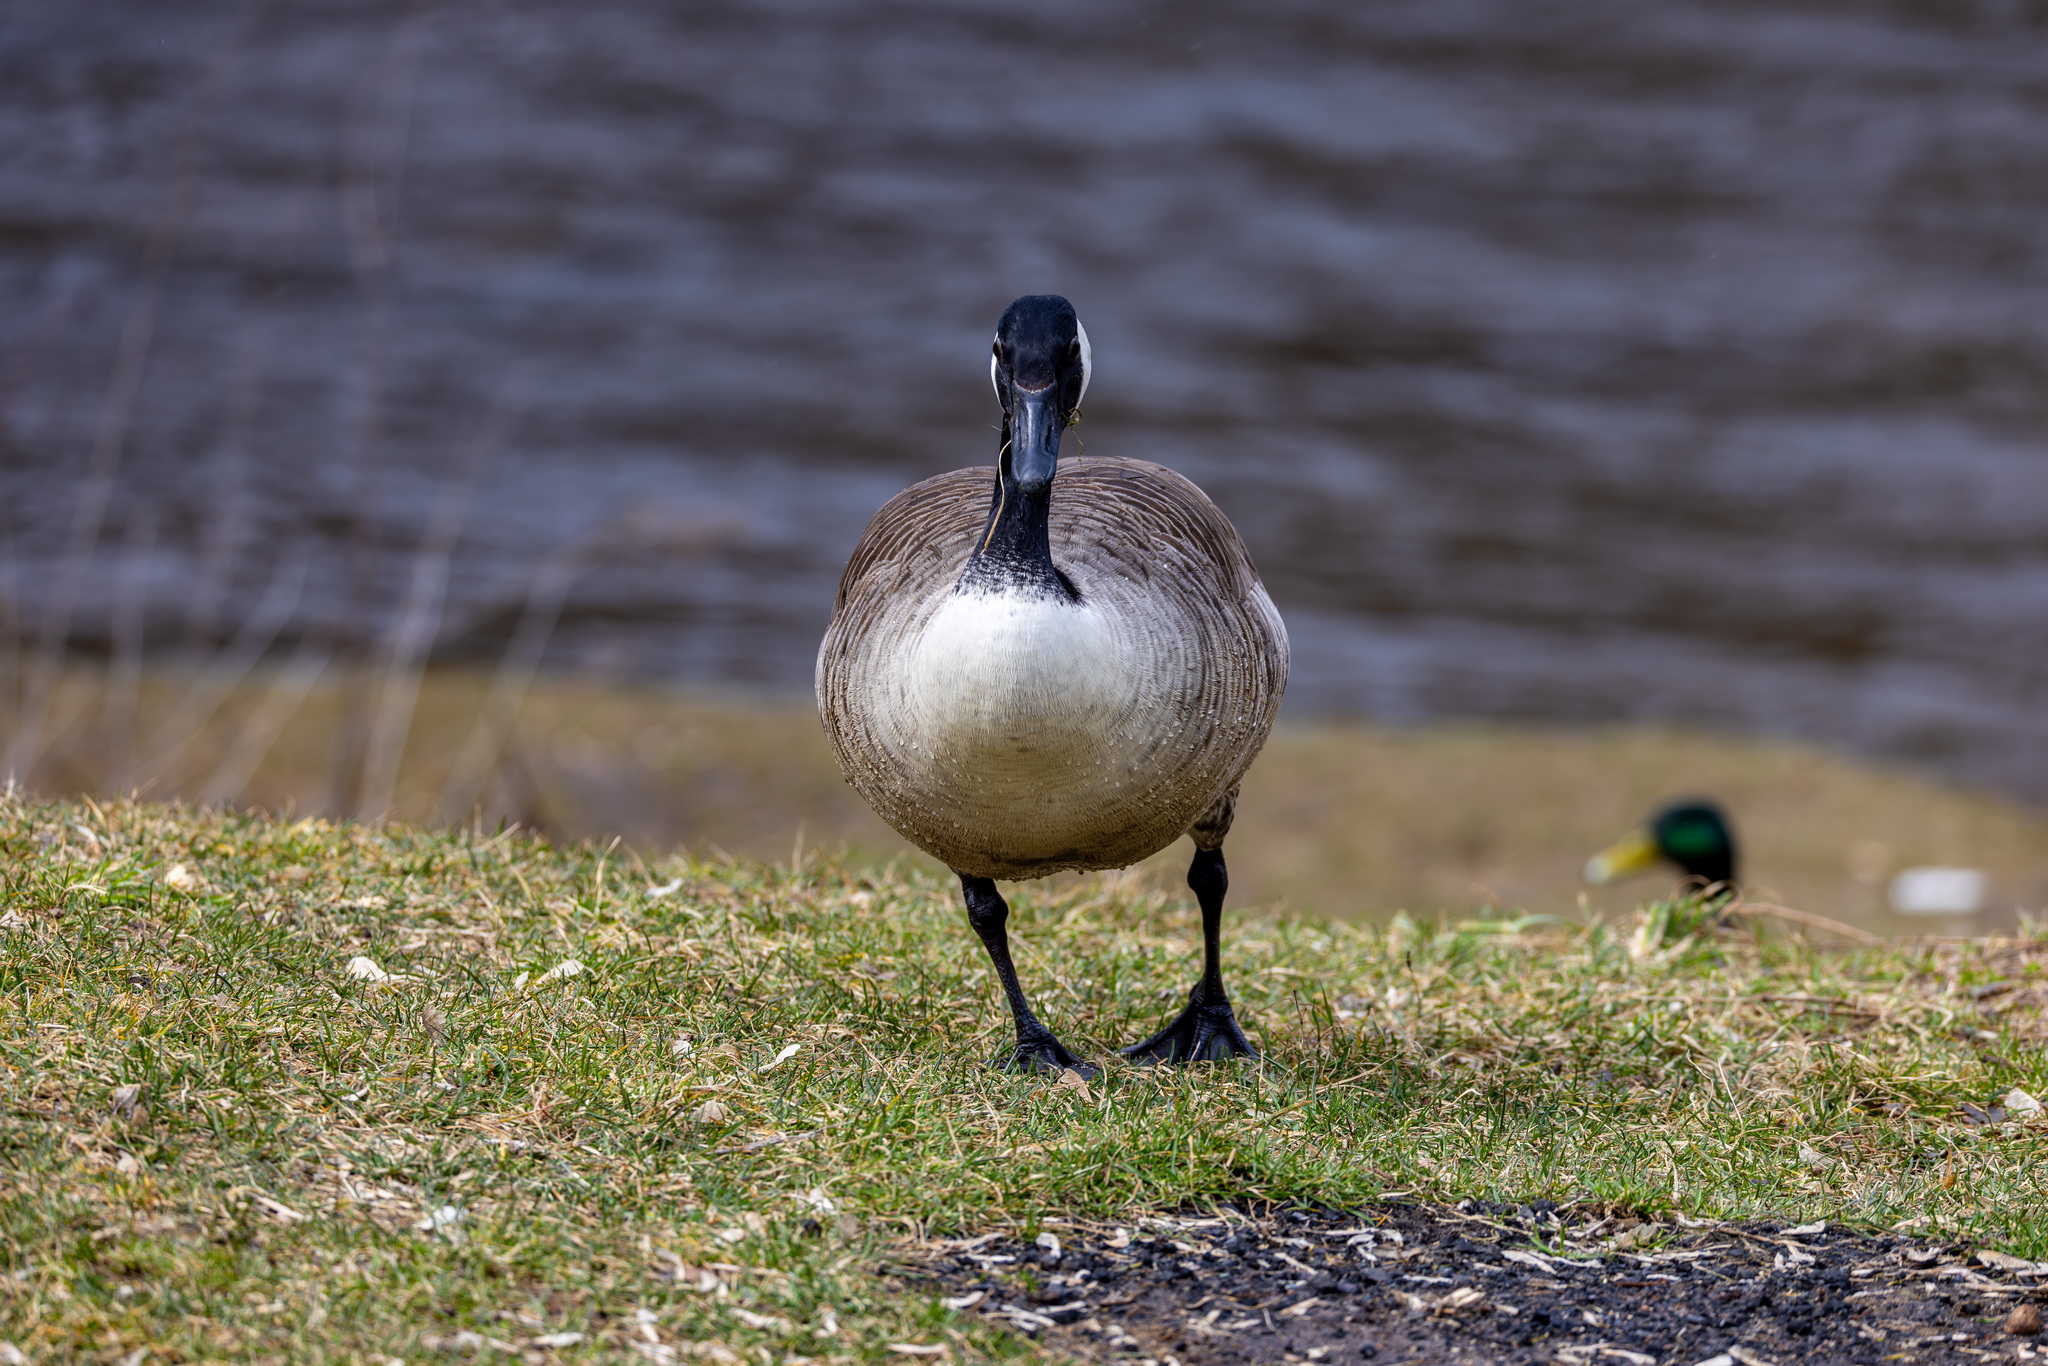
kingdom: Animalia
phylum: Chordata
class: Aves
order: Anseriformes
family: Anatidae
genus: Branta
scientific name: Branta canadensis
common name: Canada goose
